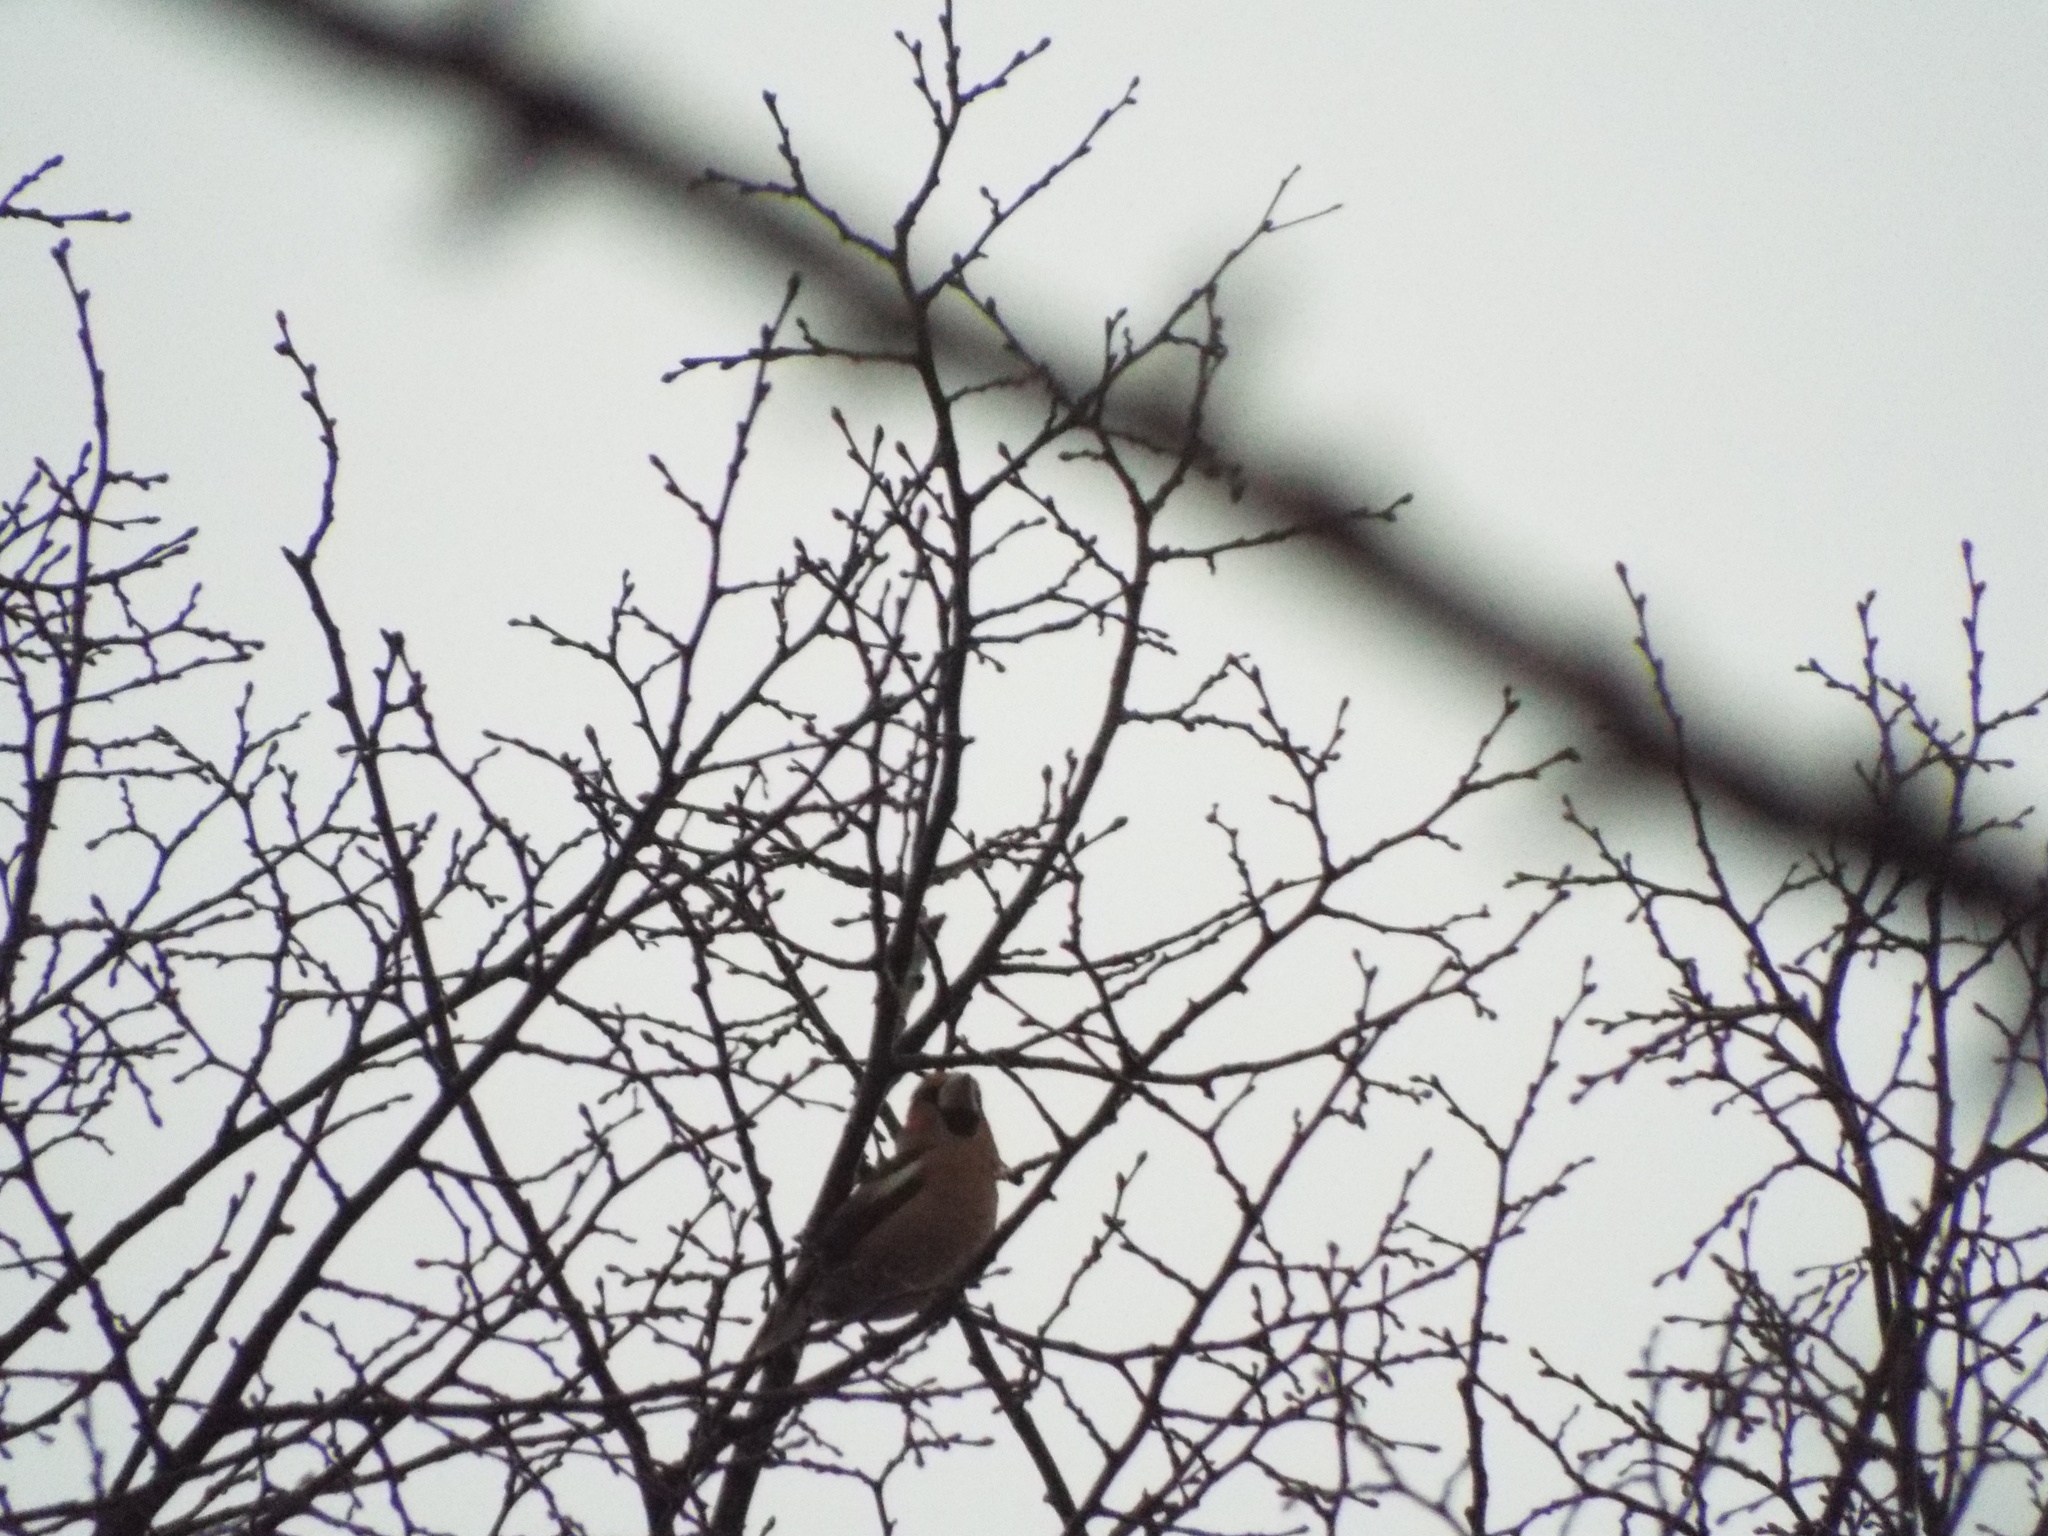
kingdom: Animalia
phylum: Chordata
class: Aves
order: Passeriformes
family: Fringillidae
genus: Coccothraustes
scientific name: Coccothraustes coccothraustes
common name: Hawfinch
